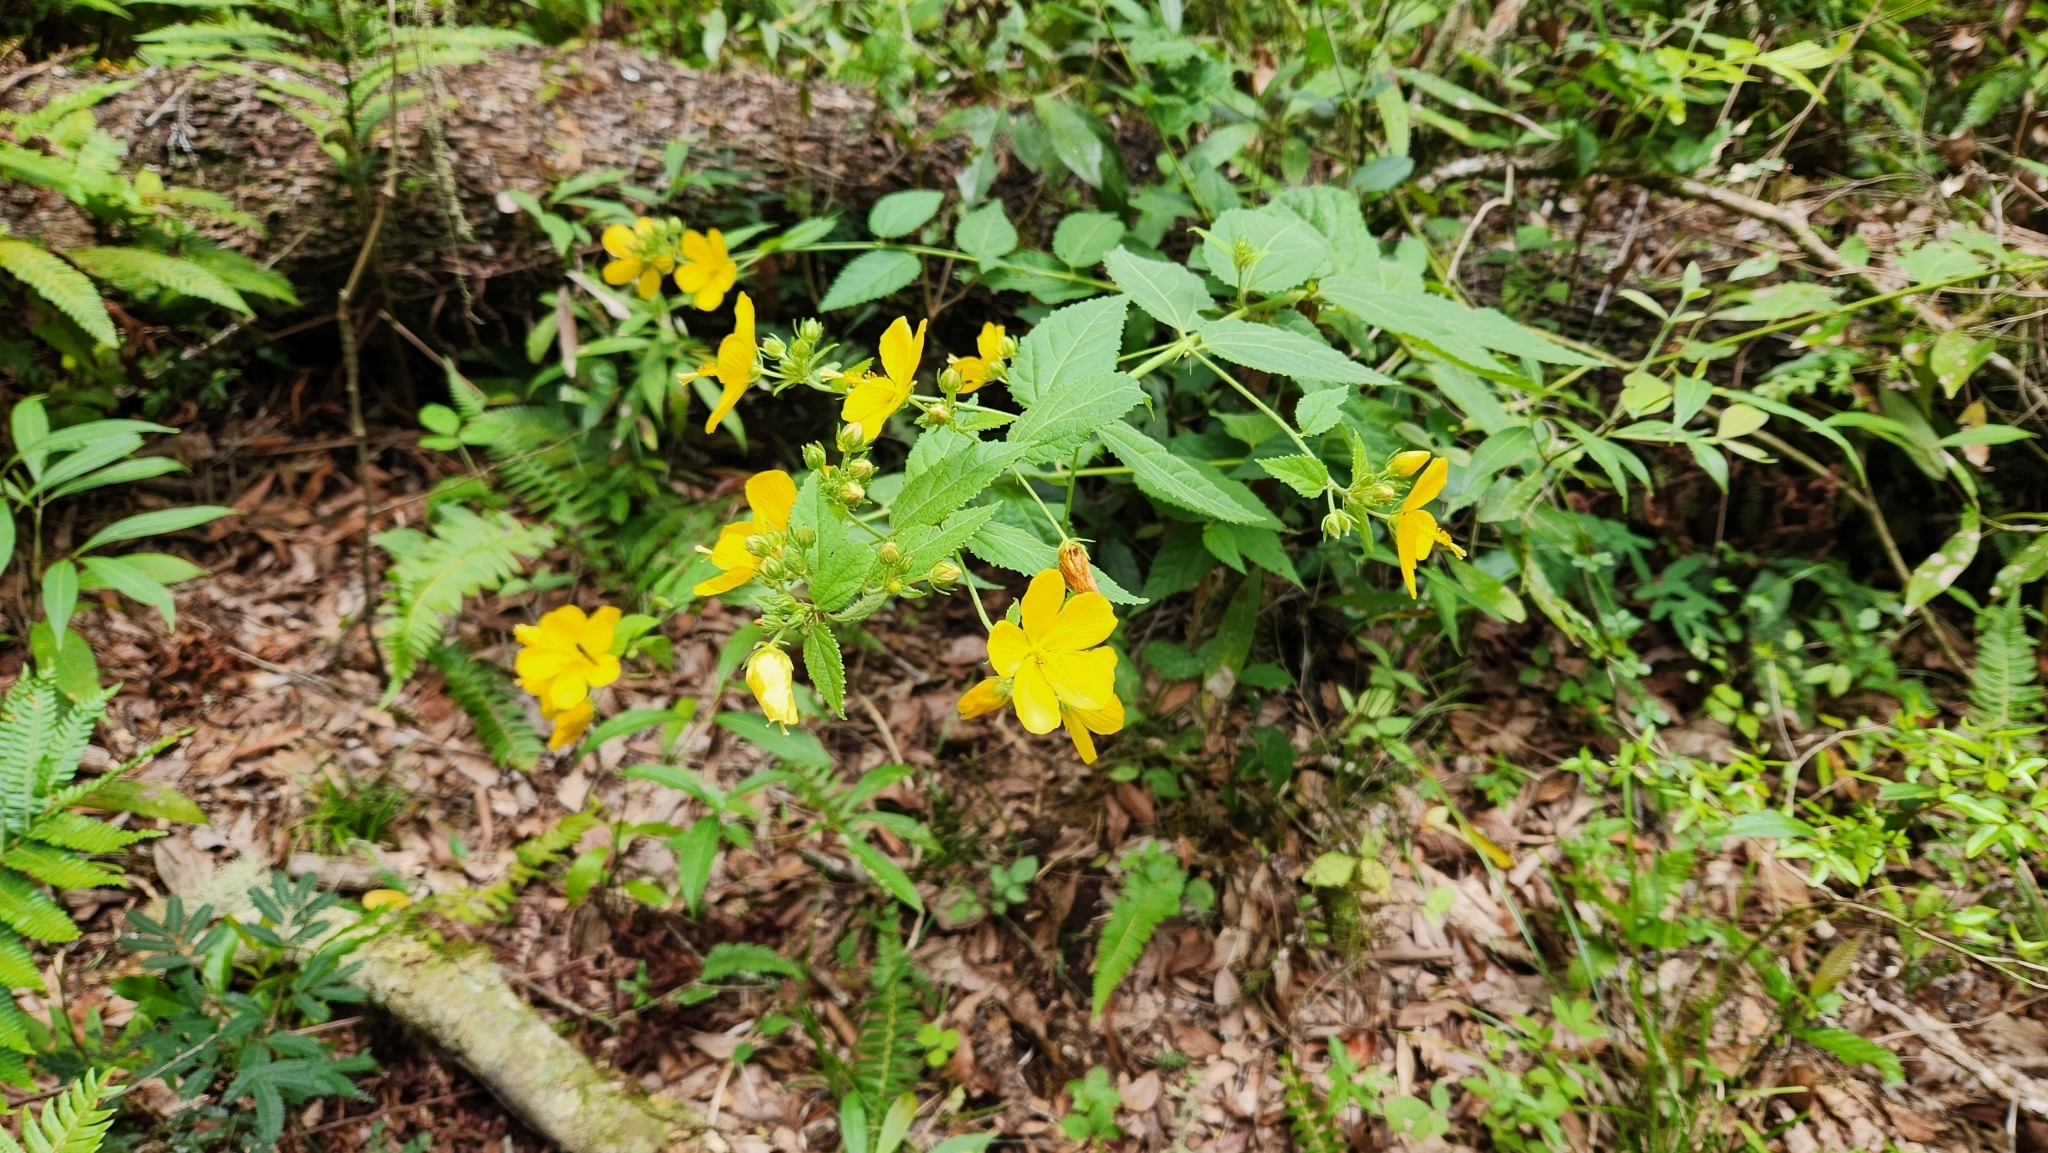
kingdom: Plantae
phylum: Tracheophyta
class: Magnoliopsida
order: Malvales
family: Malvaceae
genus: Pavonia
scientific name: Pavonia communis
